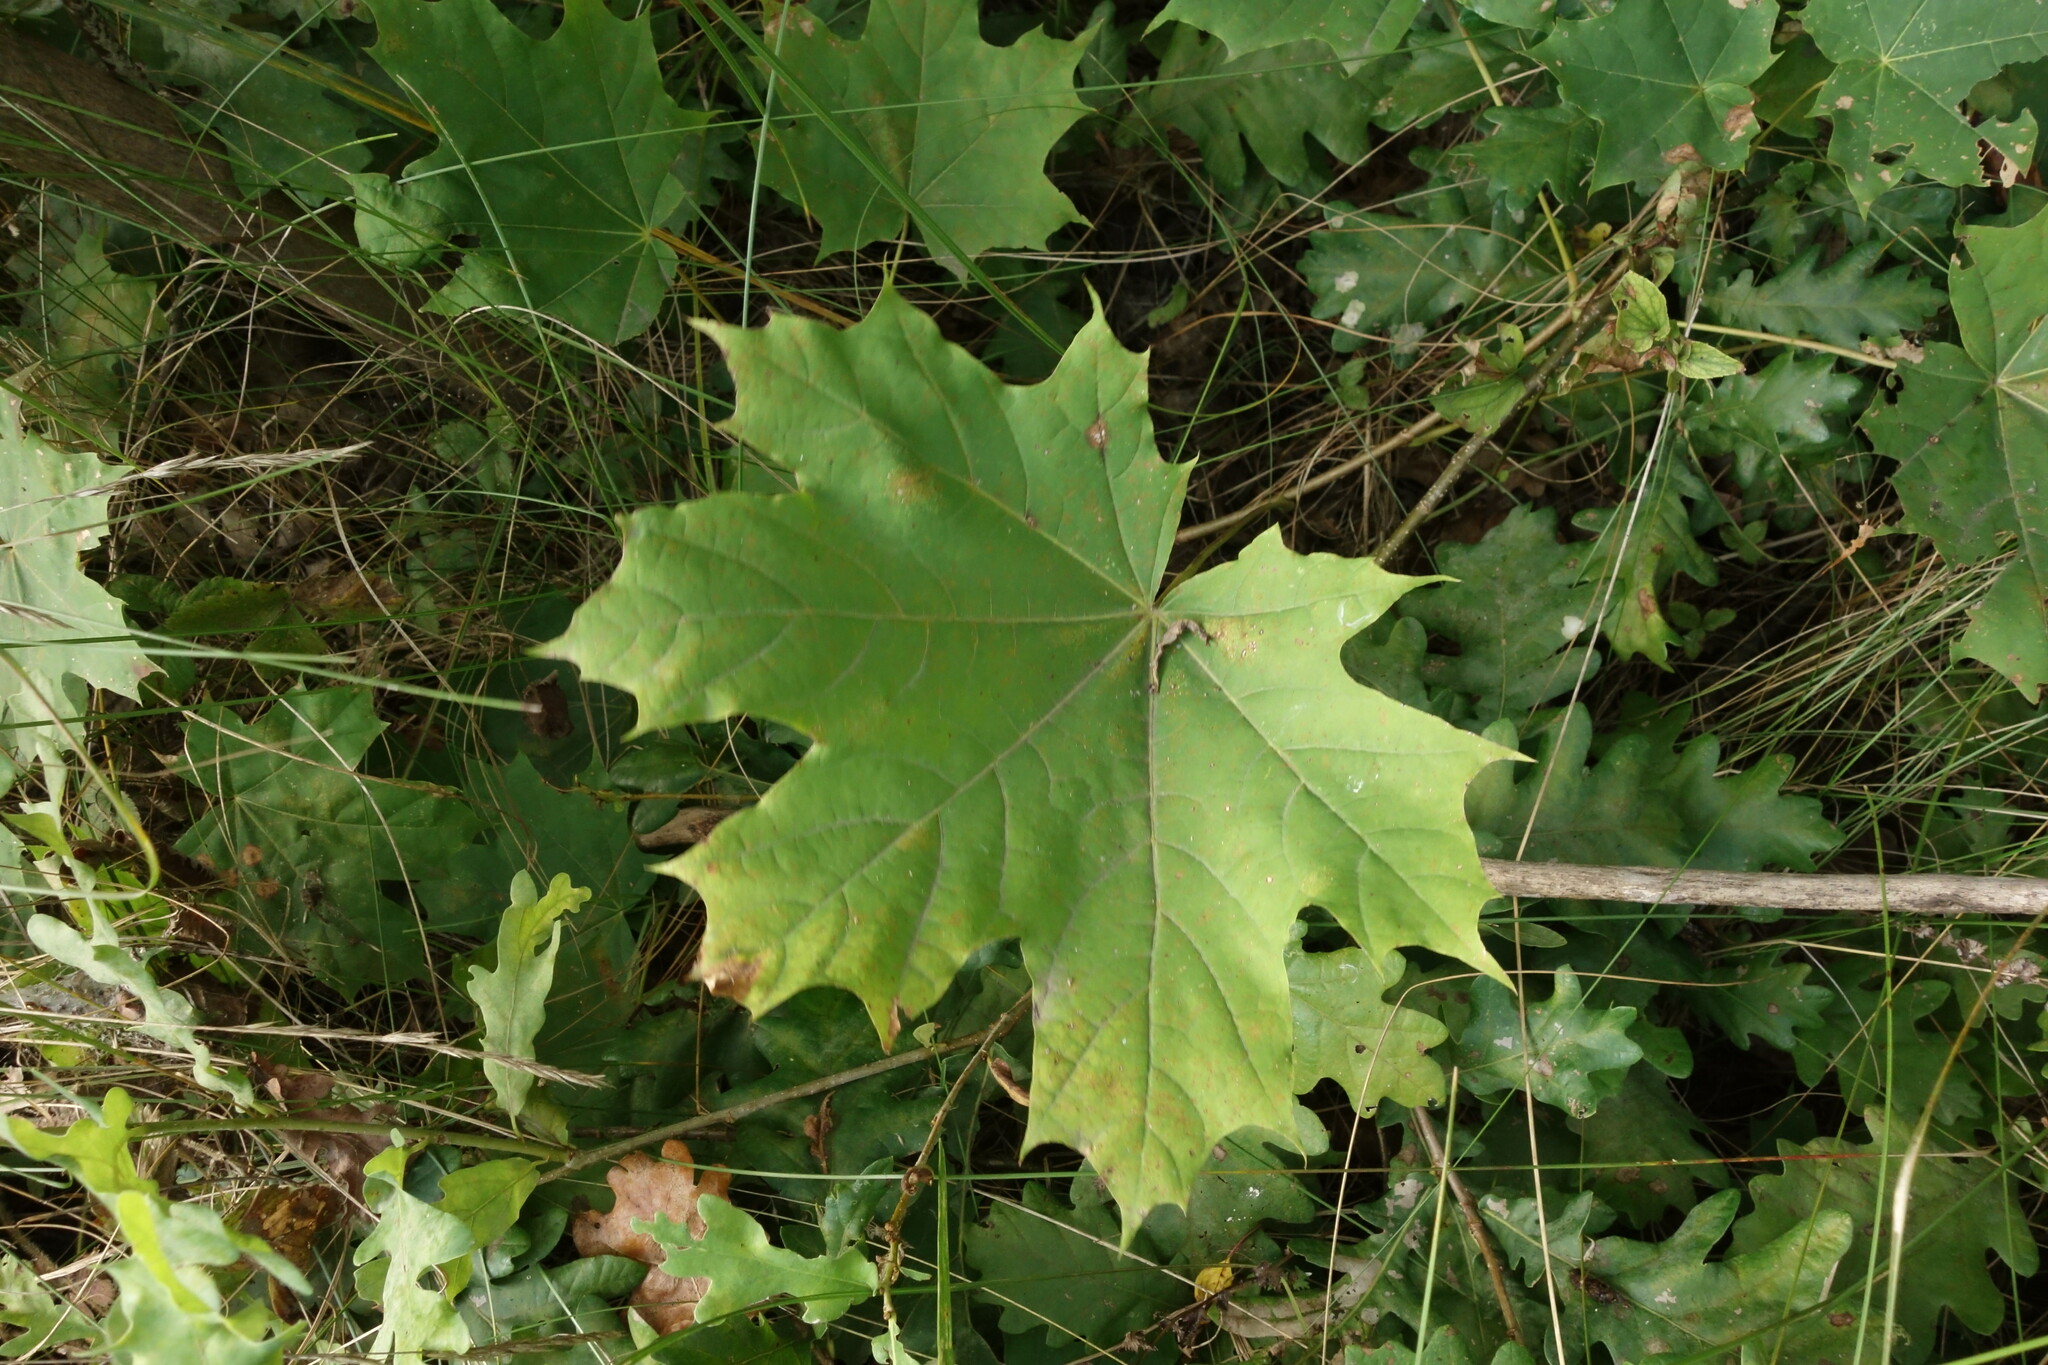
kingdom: Plantae
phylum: Tracheophyta
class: Magnoliopsida
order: Sapindales
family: Sapindaceae
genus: Acer
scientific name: Acer platanoides
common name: Norway maple
